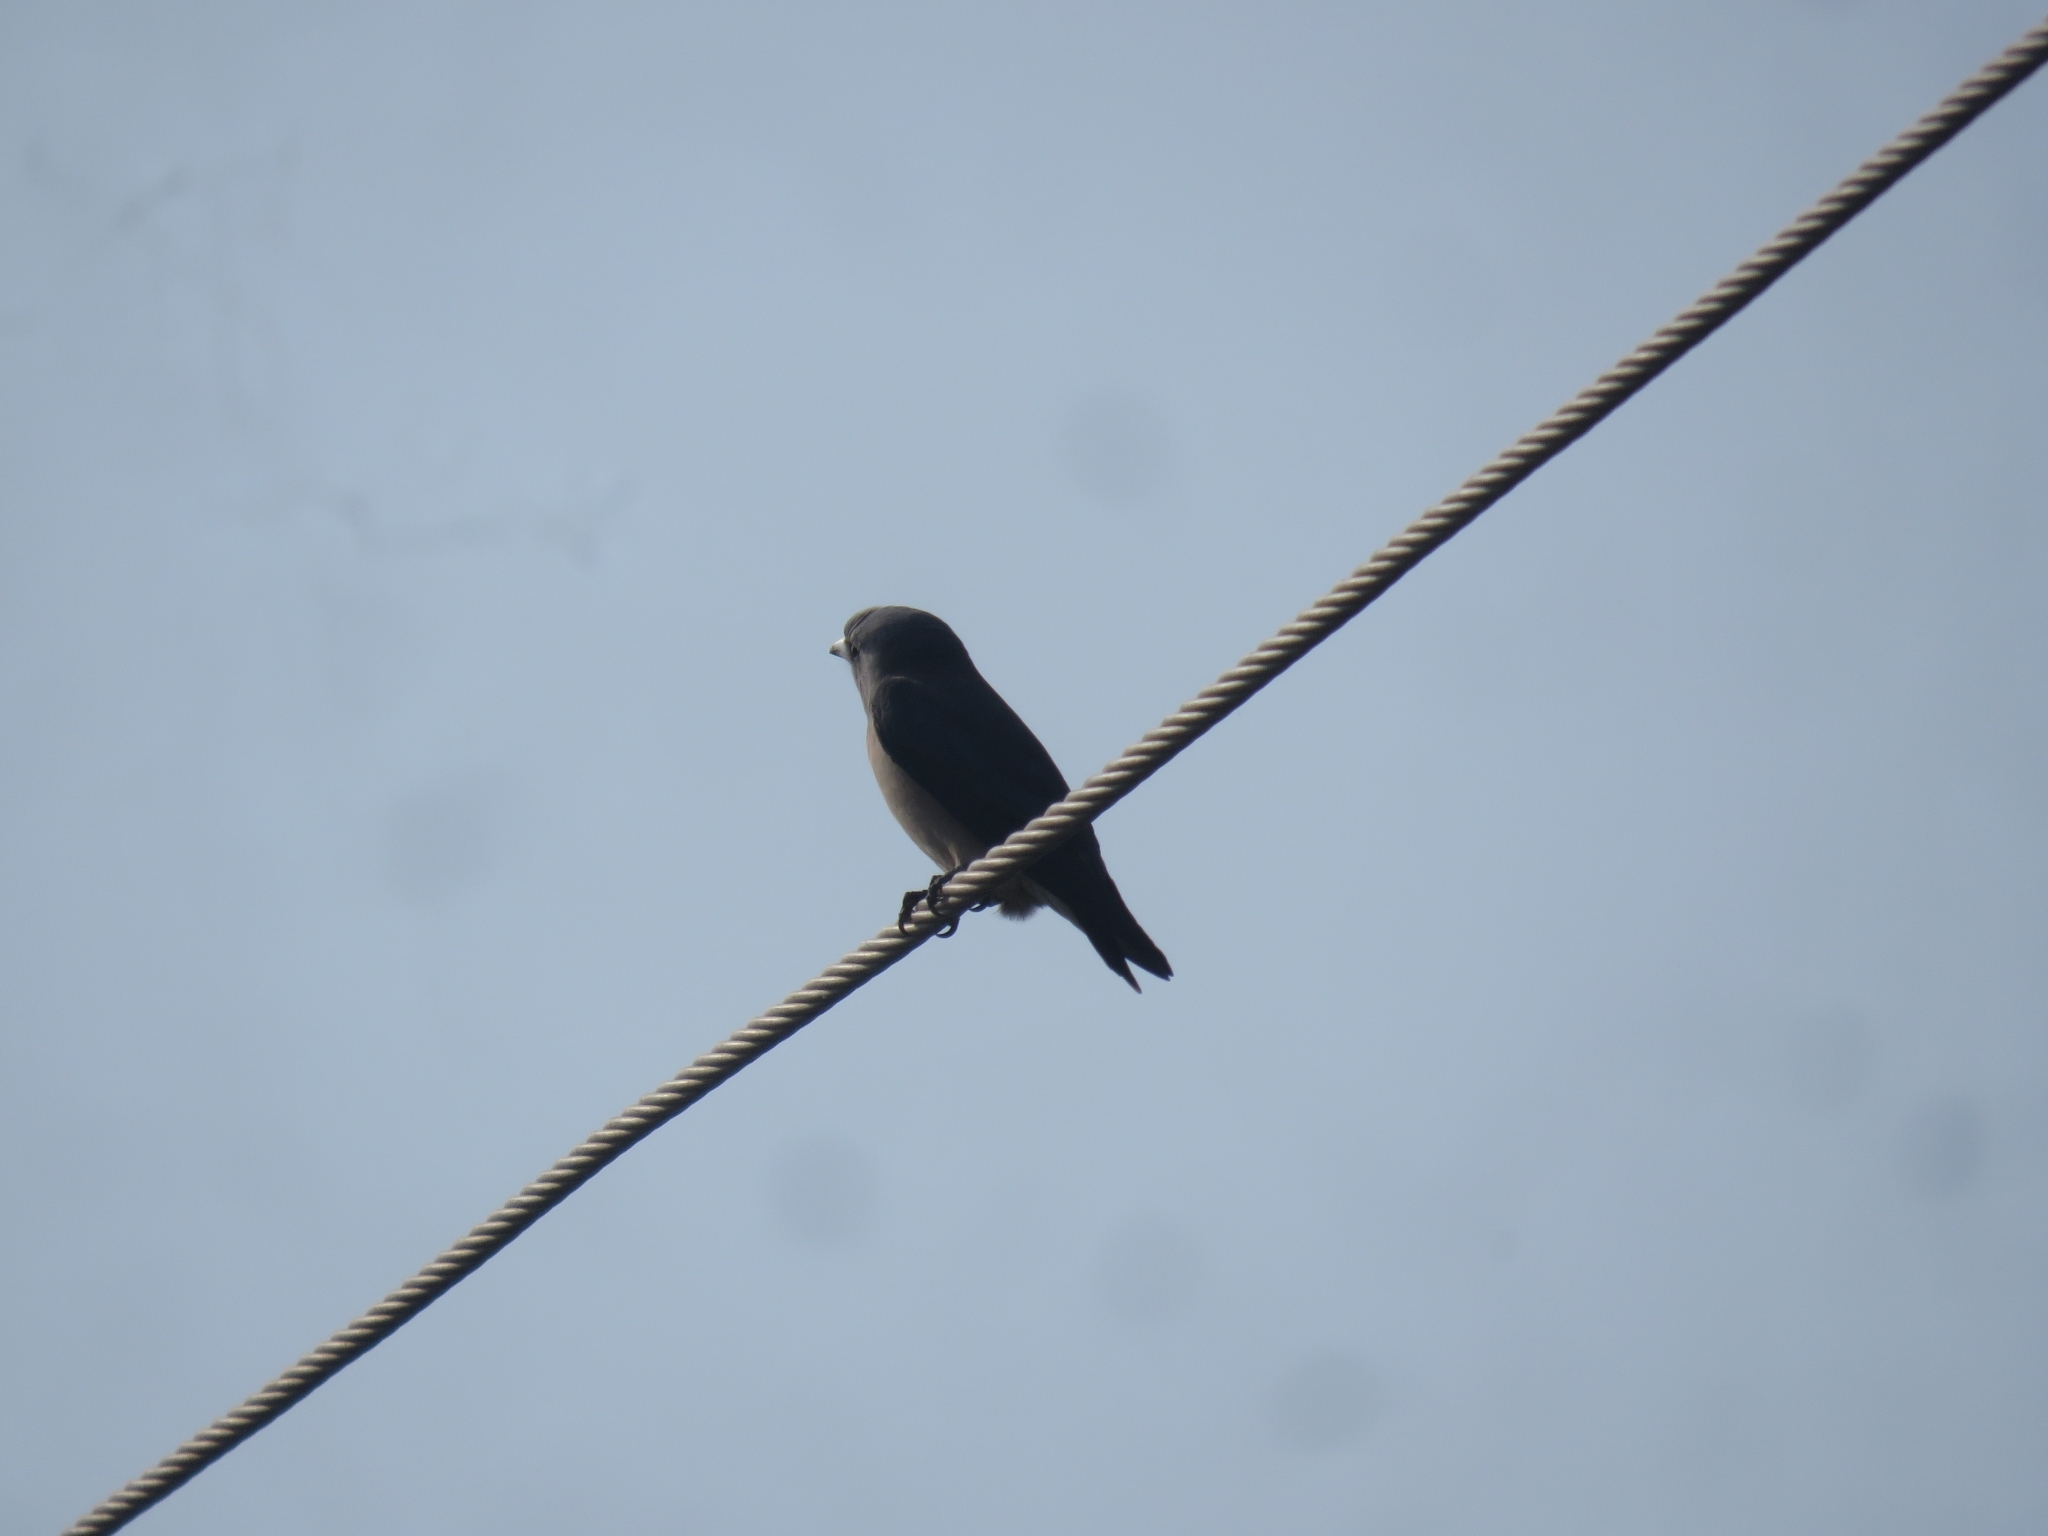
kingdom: Animalia
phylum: Chordata
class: Aves
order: Passeriformes
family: Artamidae
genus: Artamus
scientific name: Artamus fuscus
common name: Ashy woodswallow
